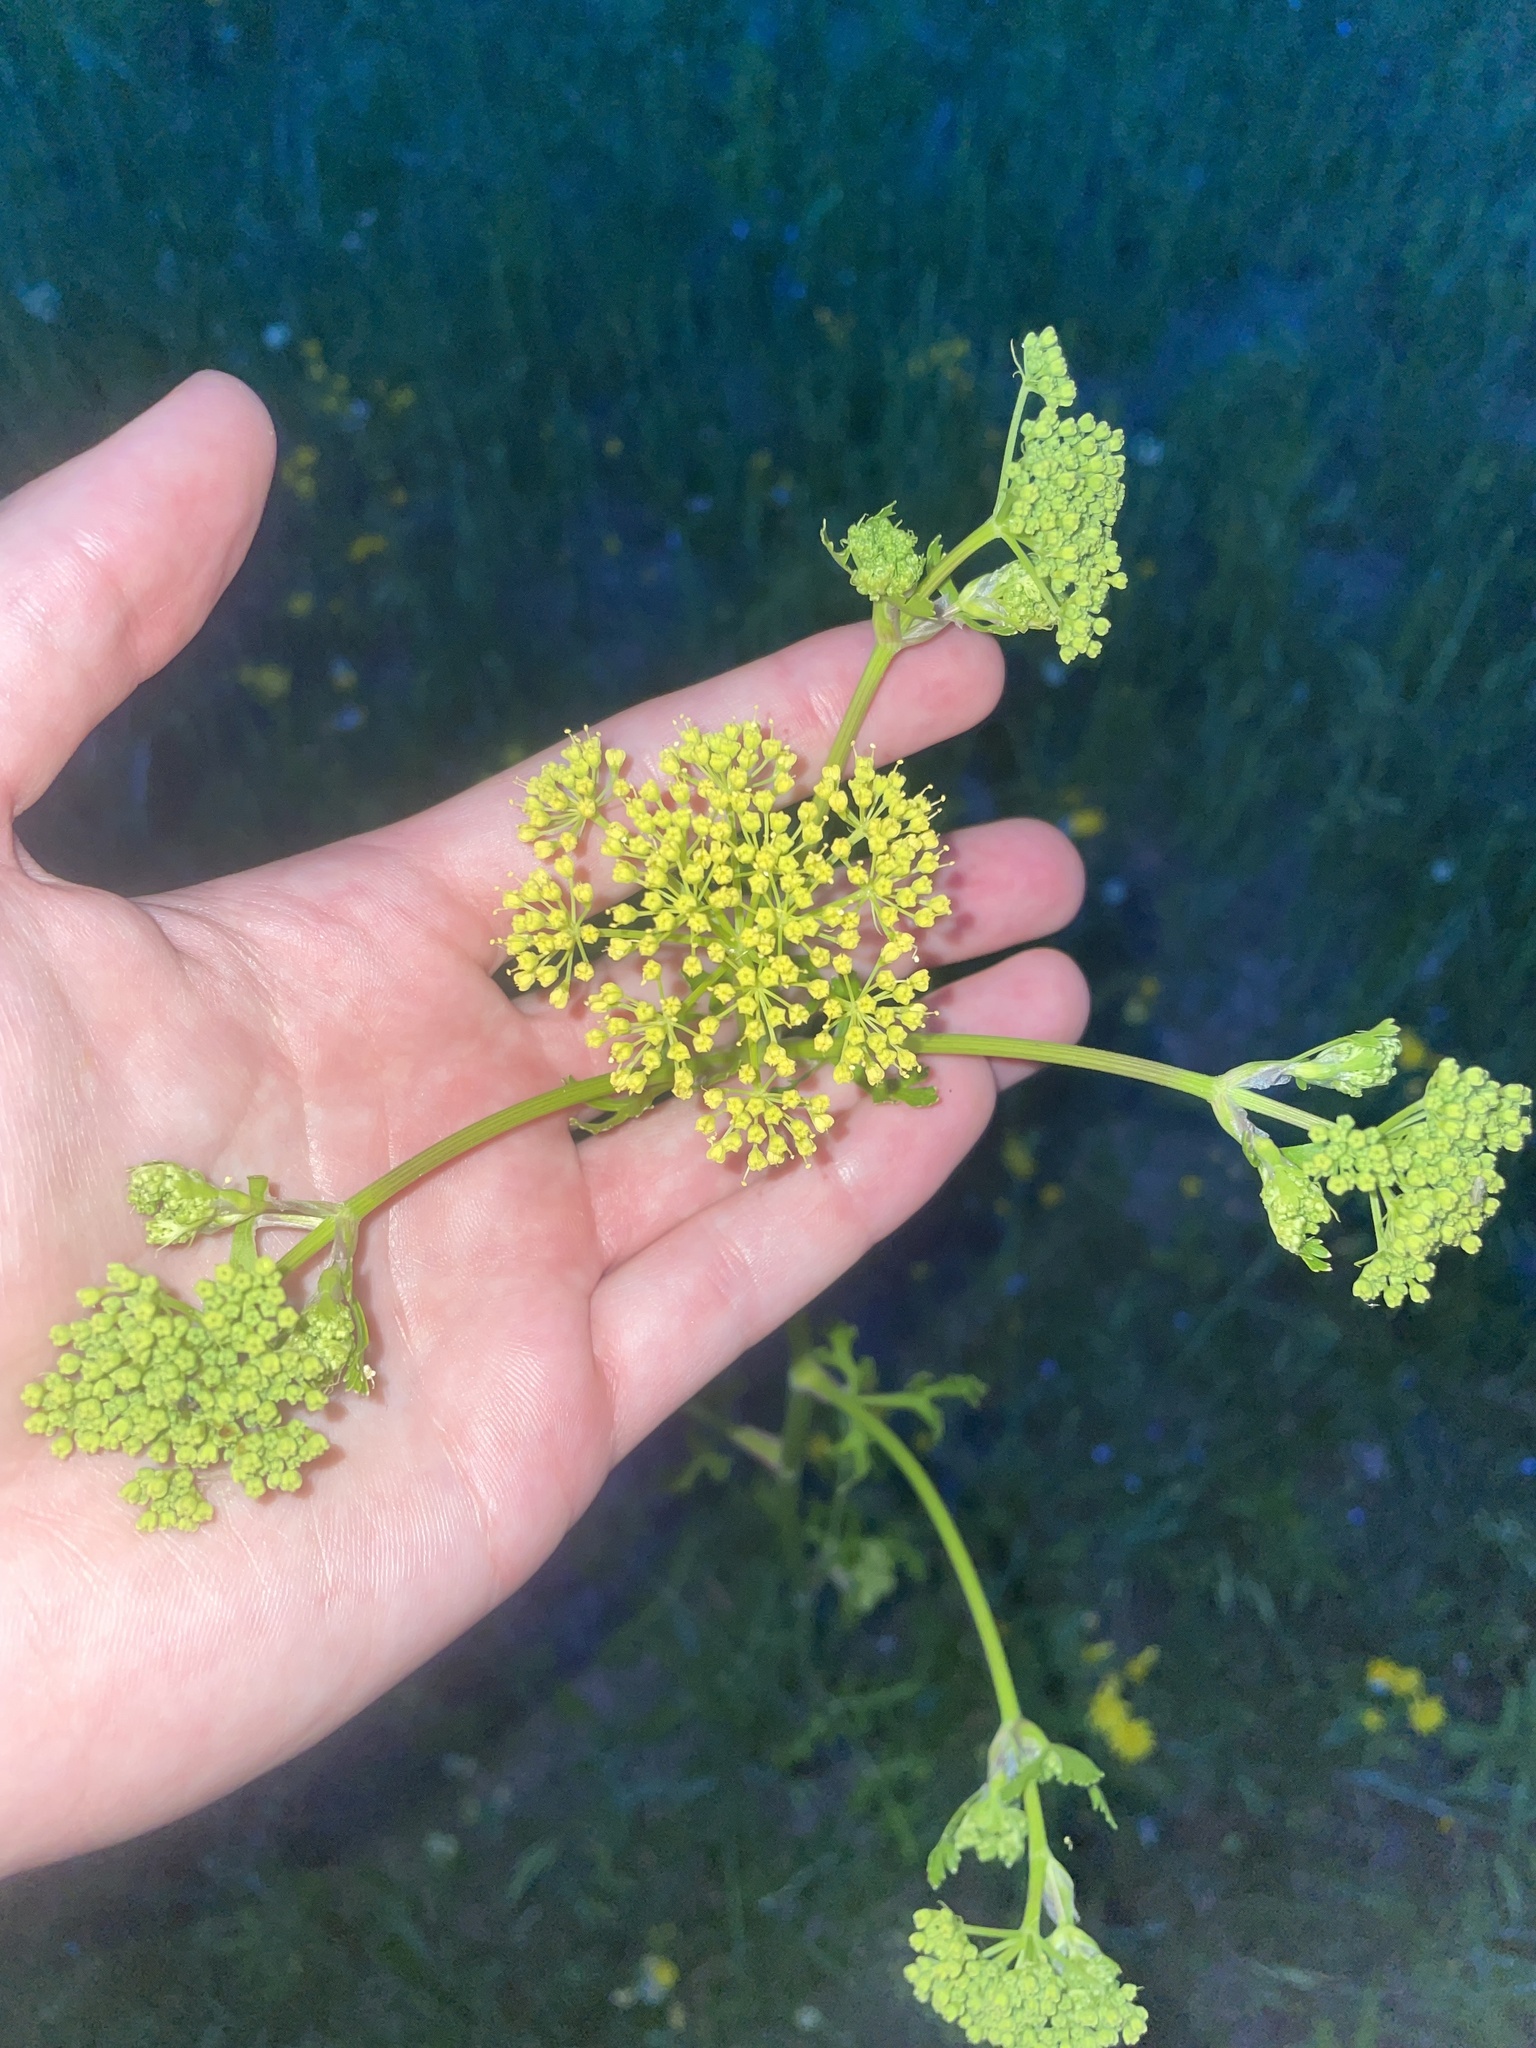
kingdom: Plantae
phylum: Tracheophyta
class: Magnoliopsida
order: Apiales
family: Apiaceae
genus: Polytaenia
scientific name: Polytaenia texana
